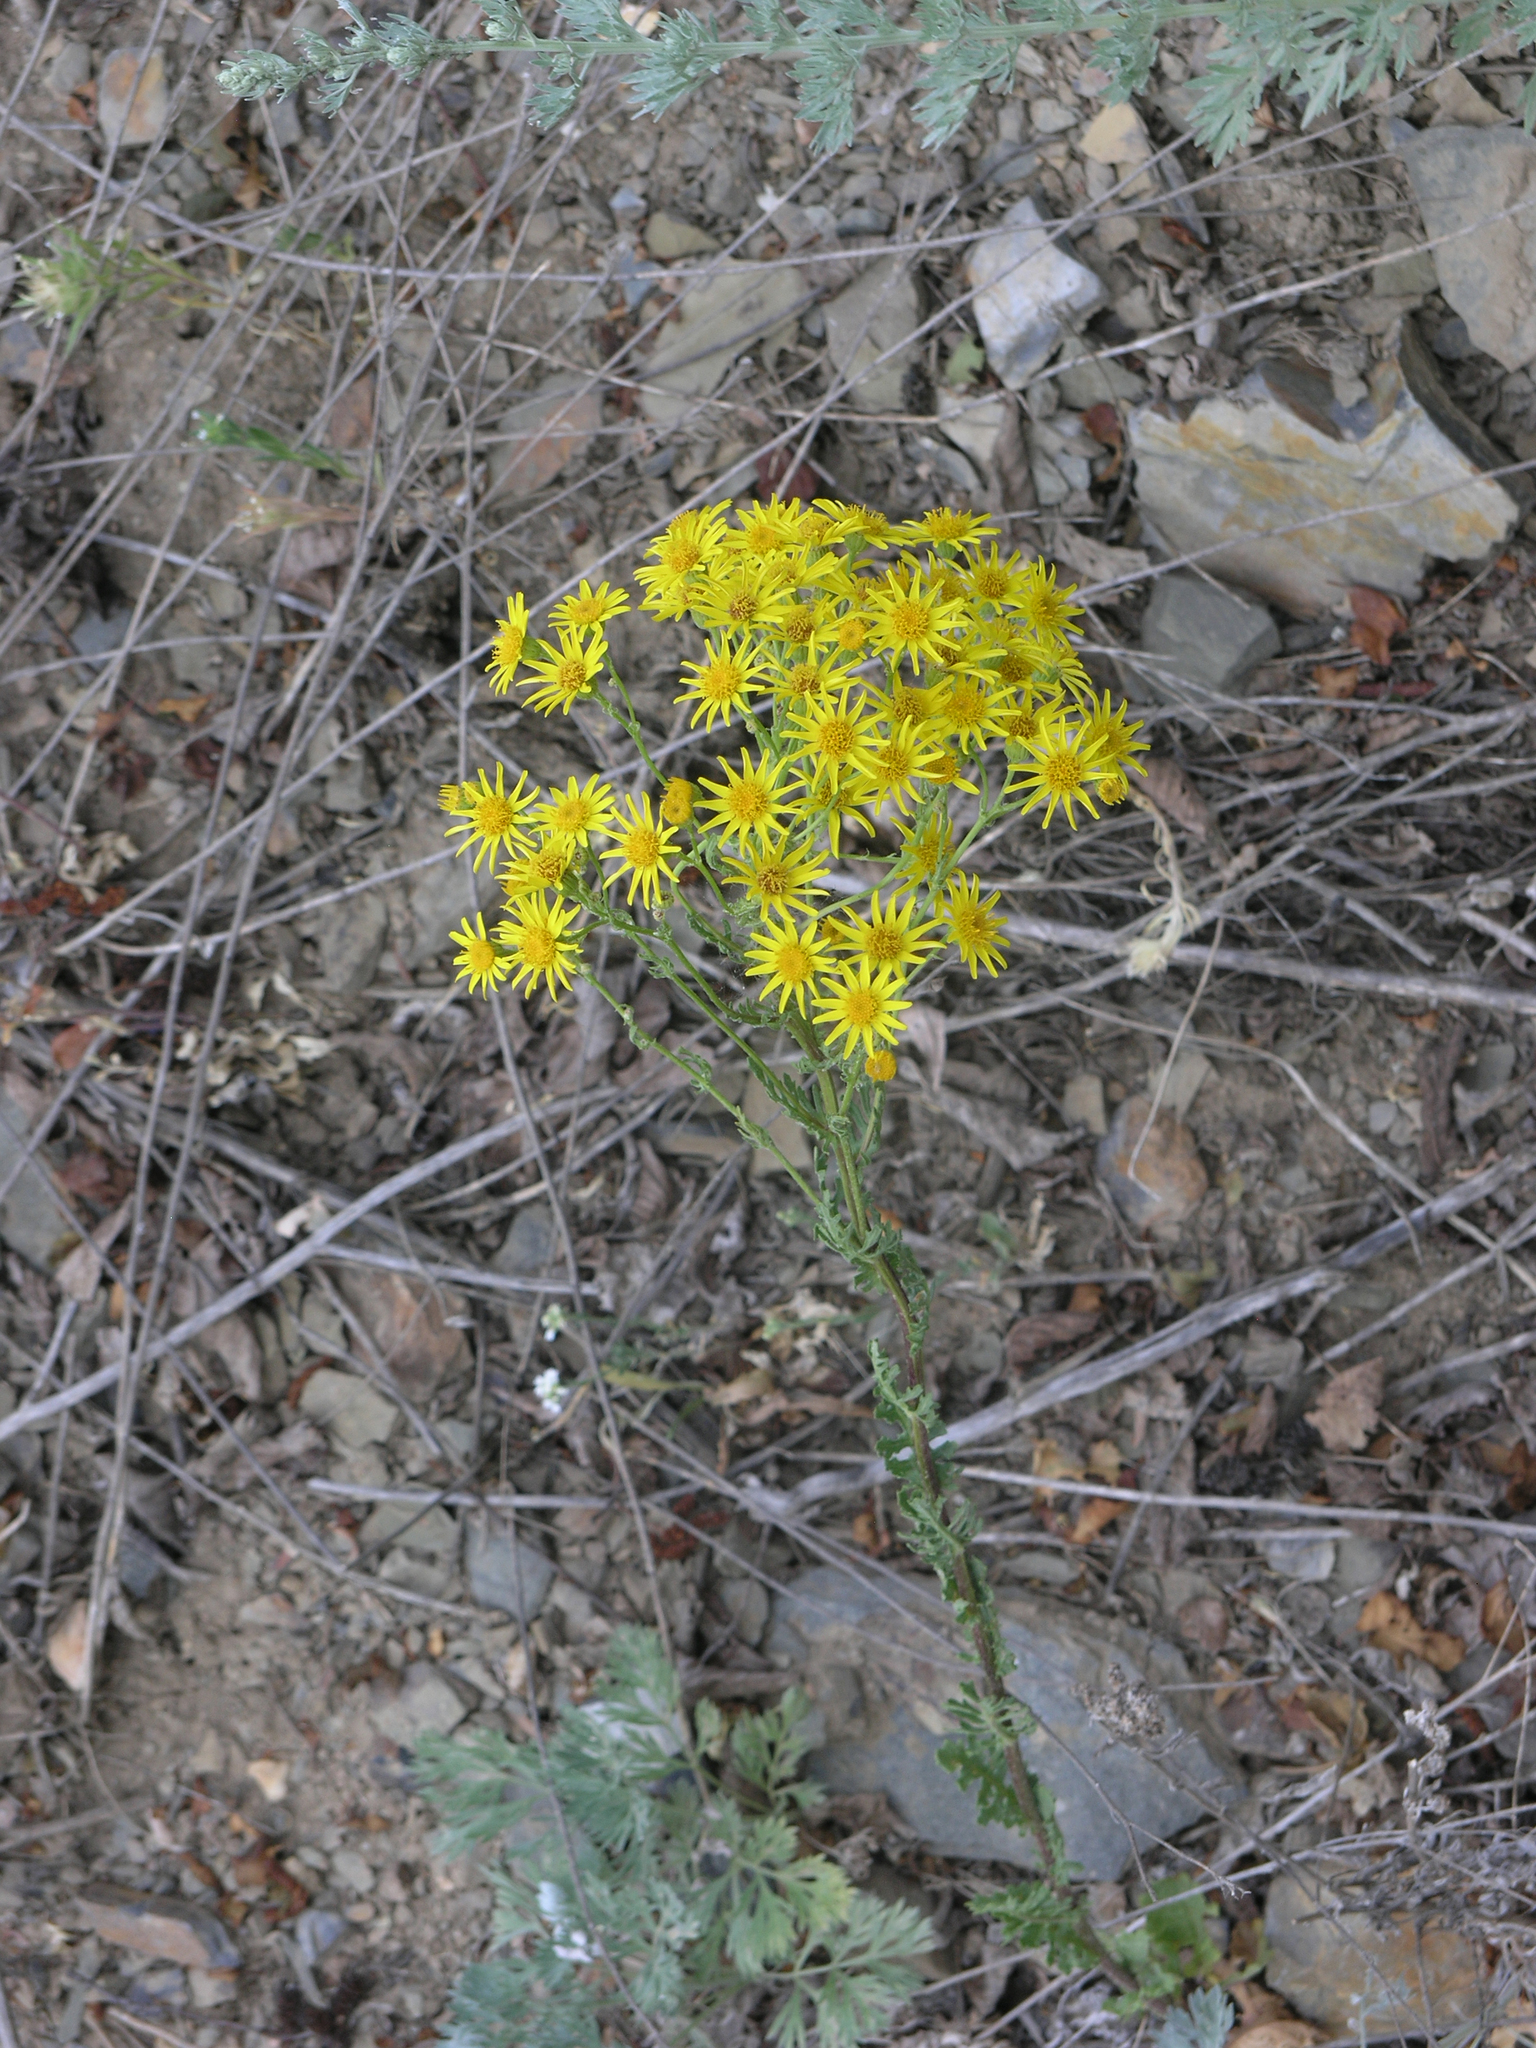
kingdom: Plantae
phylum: Tracheophyta
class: Magnoliopsida
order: Asterales
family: Asteraceae
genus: Jacobaea
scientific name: Jacobaea vulgaris
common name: Stinking willie
